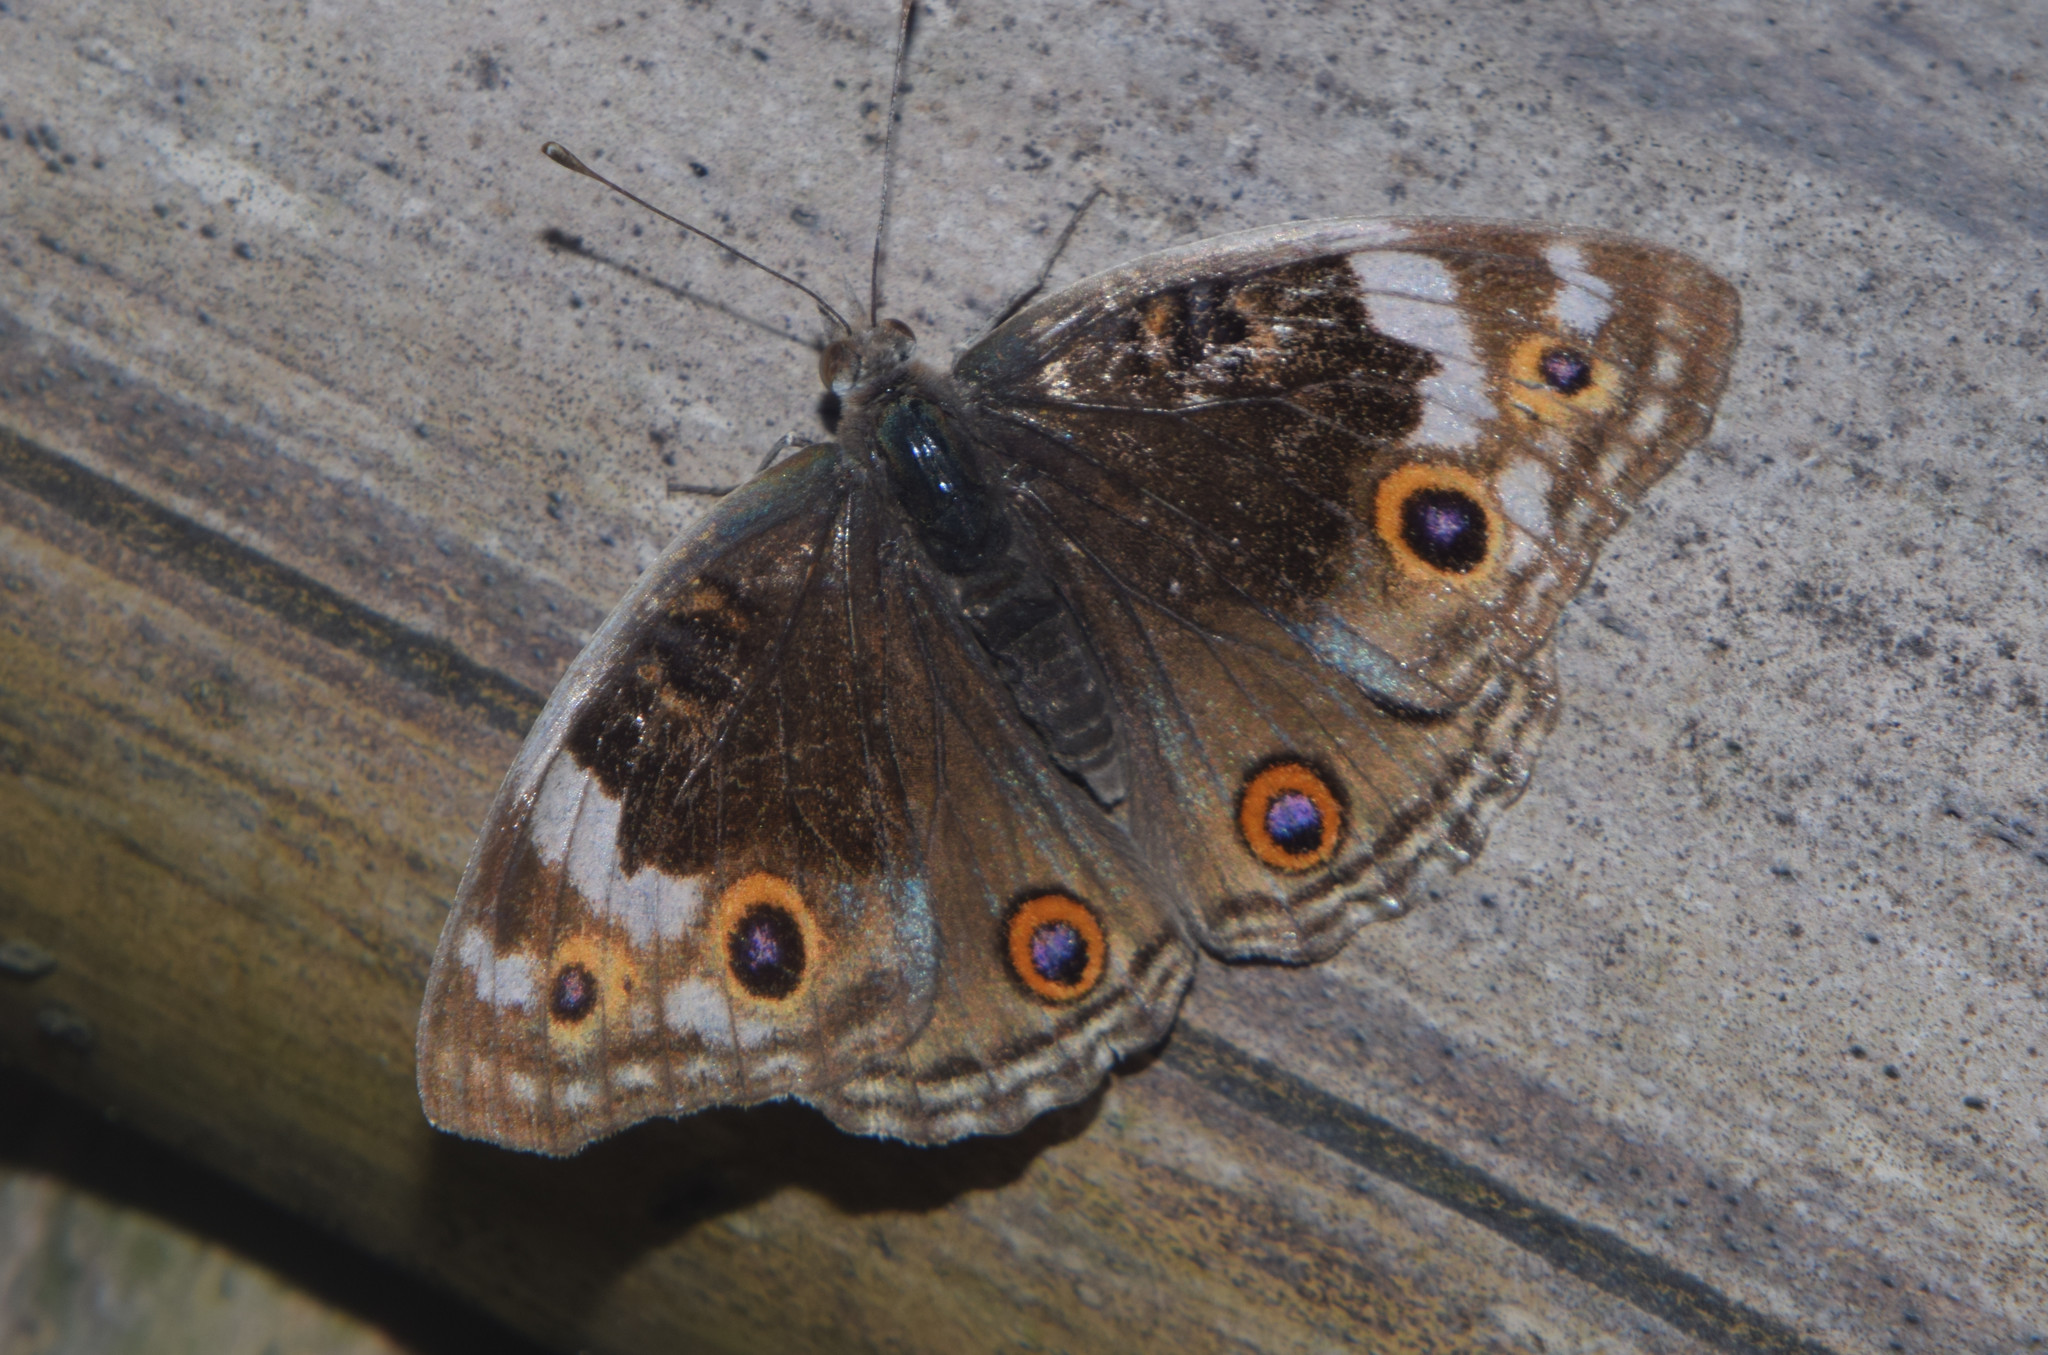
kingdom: Animalia
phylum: Arthropoda
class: Insecta
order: Lepidoptera
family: Nymphalidae
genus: Junonia
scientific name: Junonia orithya
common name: Blue pansy
